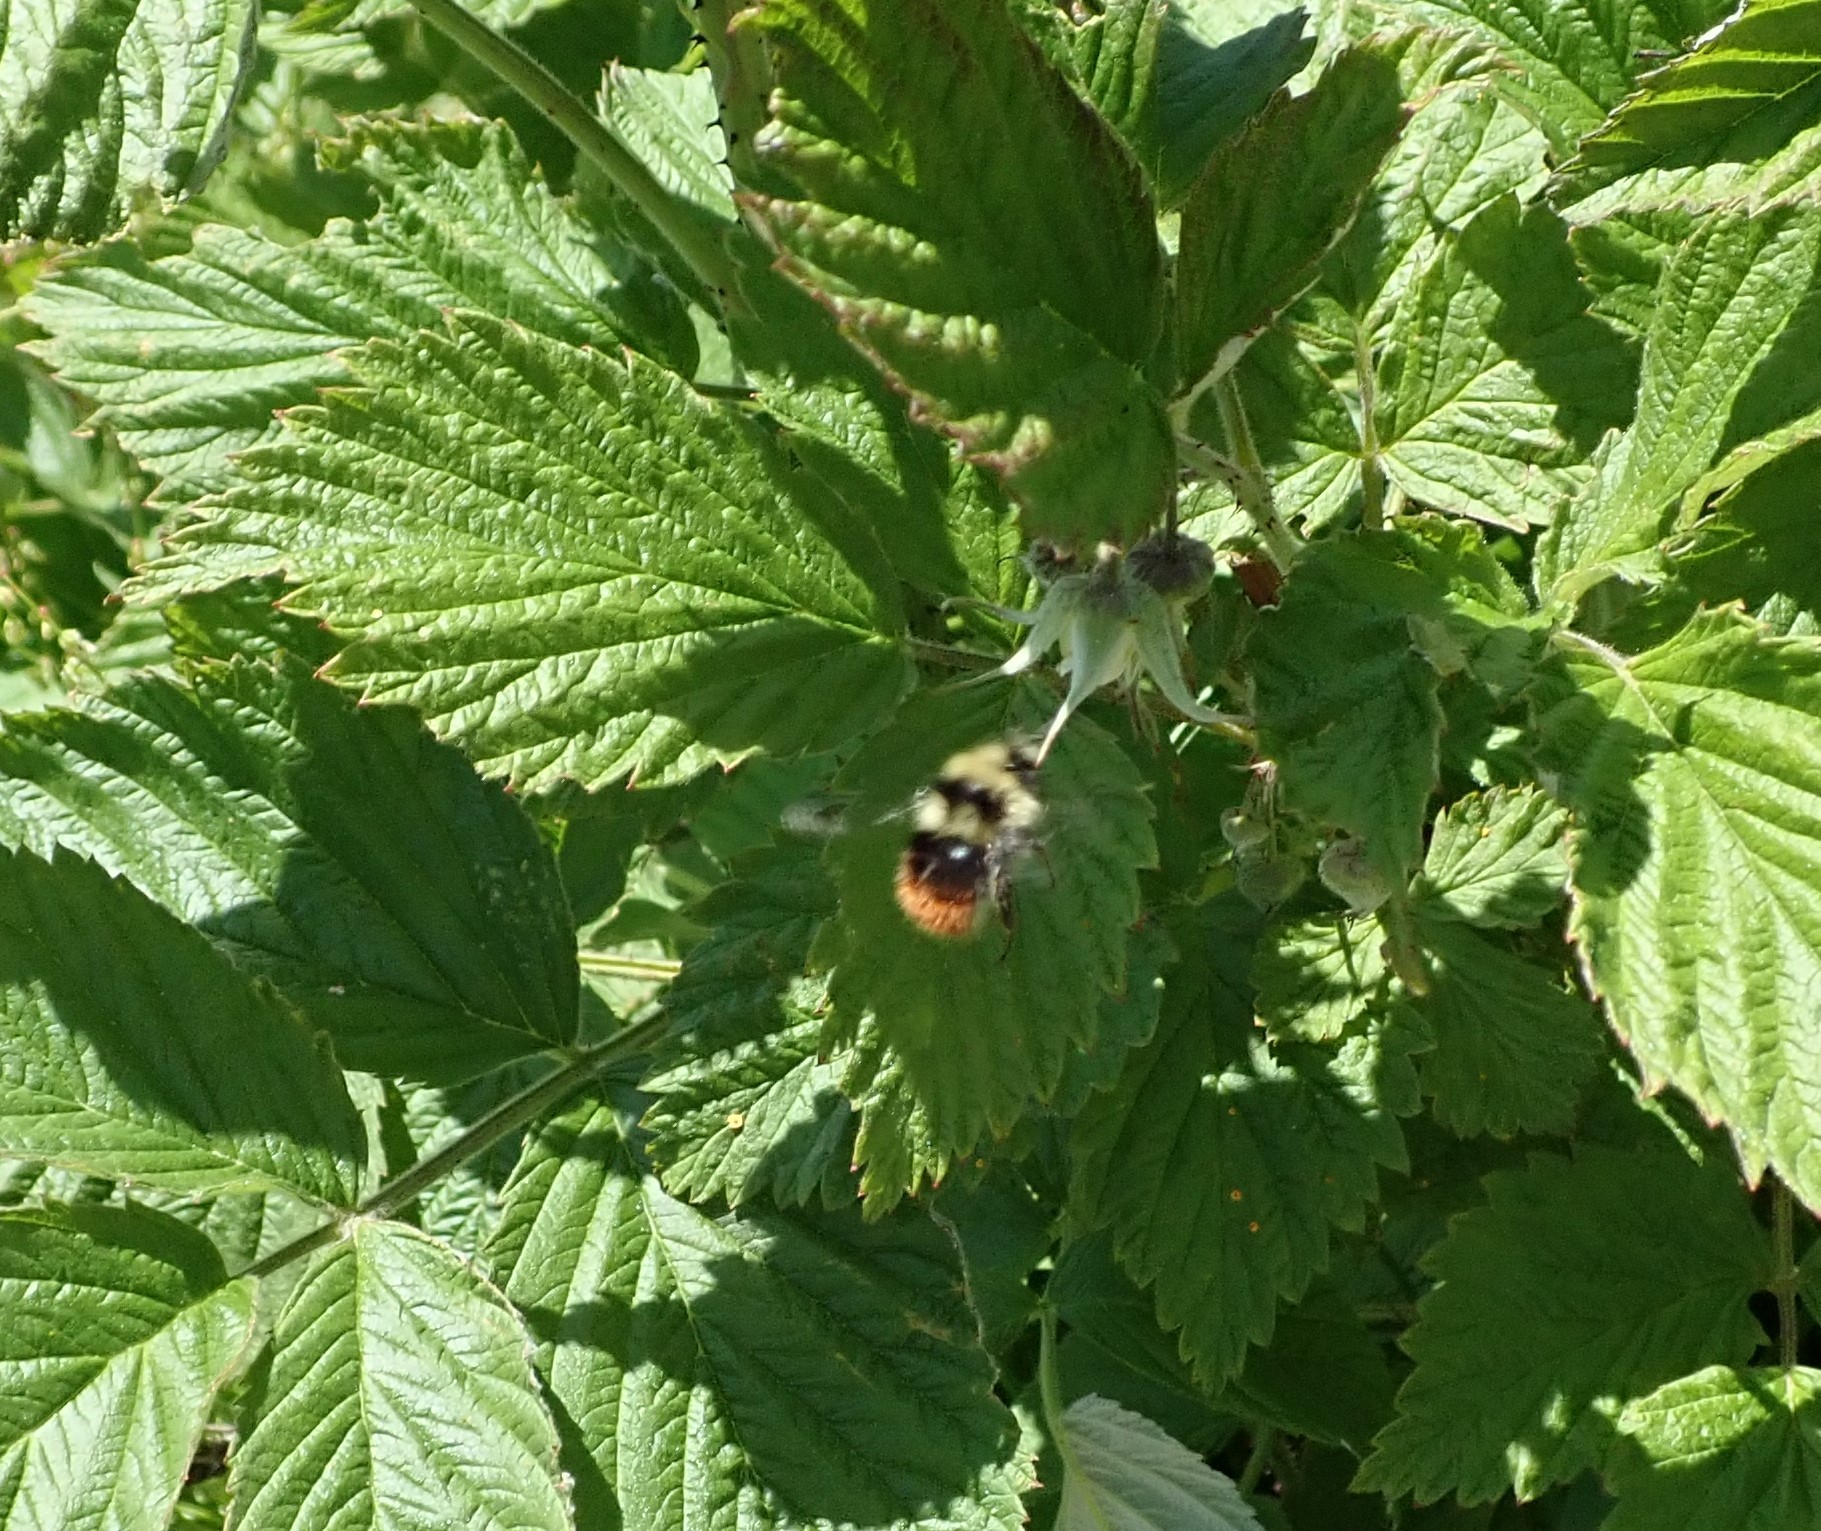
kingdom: Animalia
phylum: Arthropoda
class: Insecta
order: Hymenoptera
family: Apidae
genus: Bombus
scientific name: Bombus sichelii
